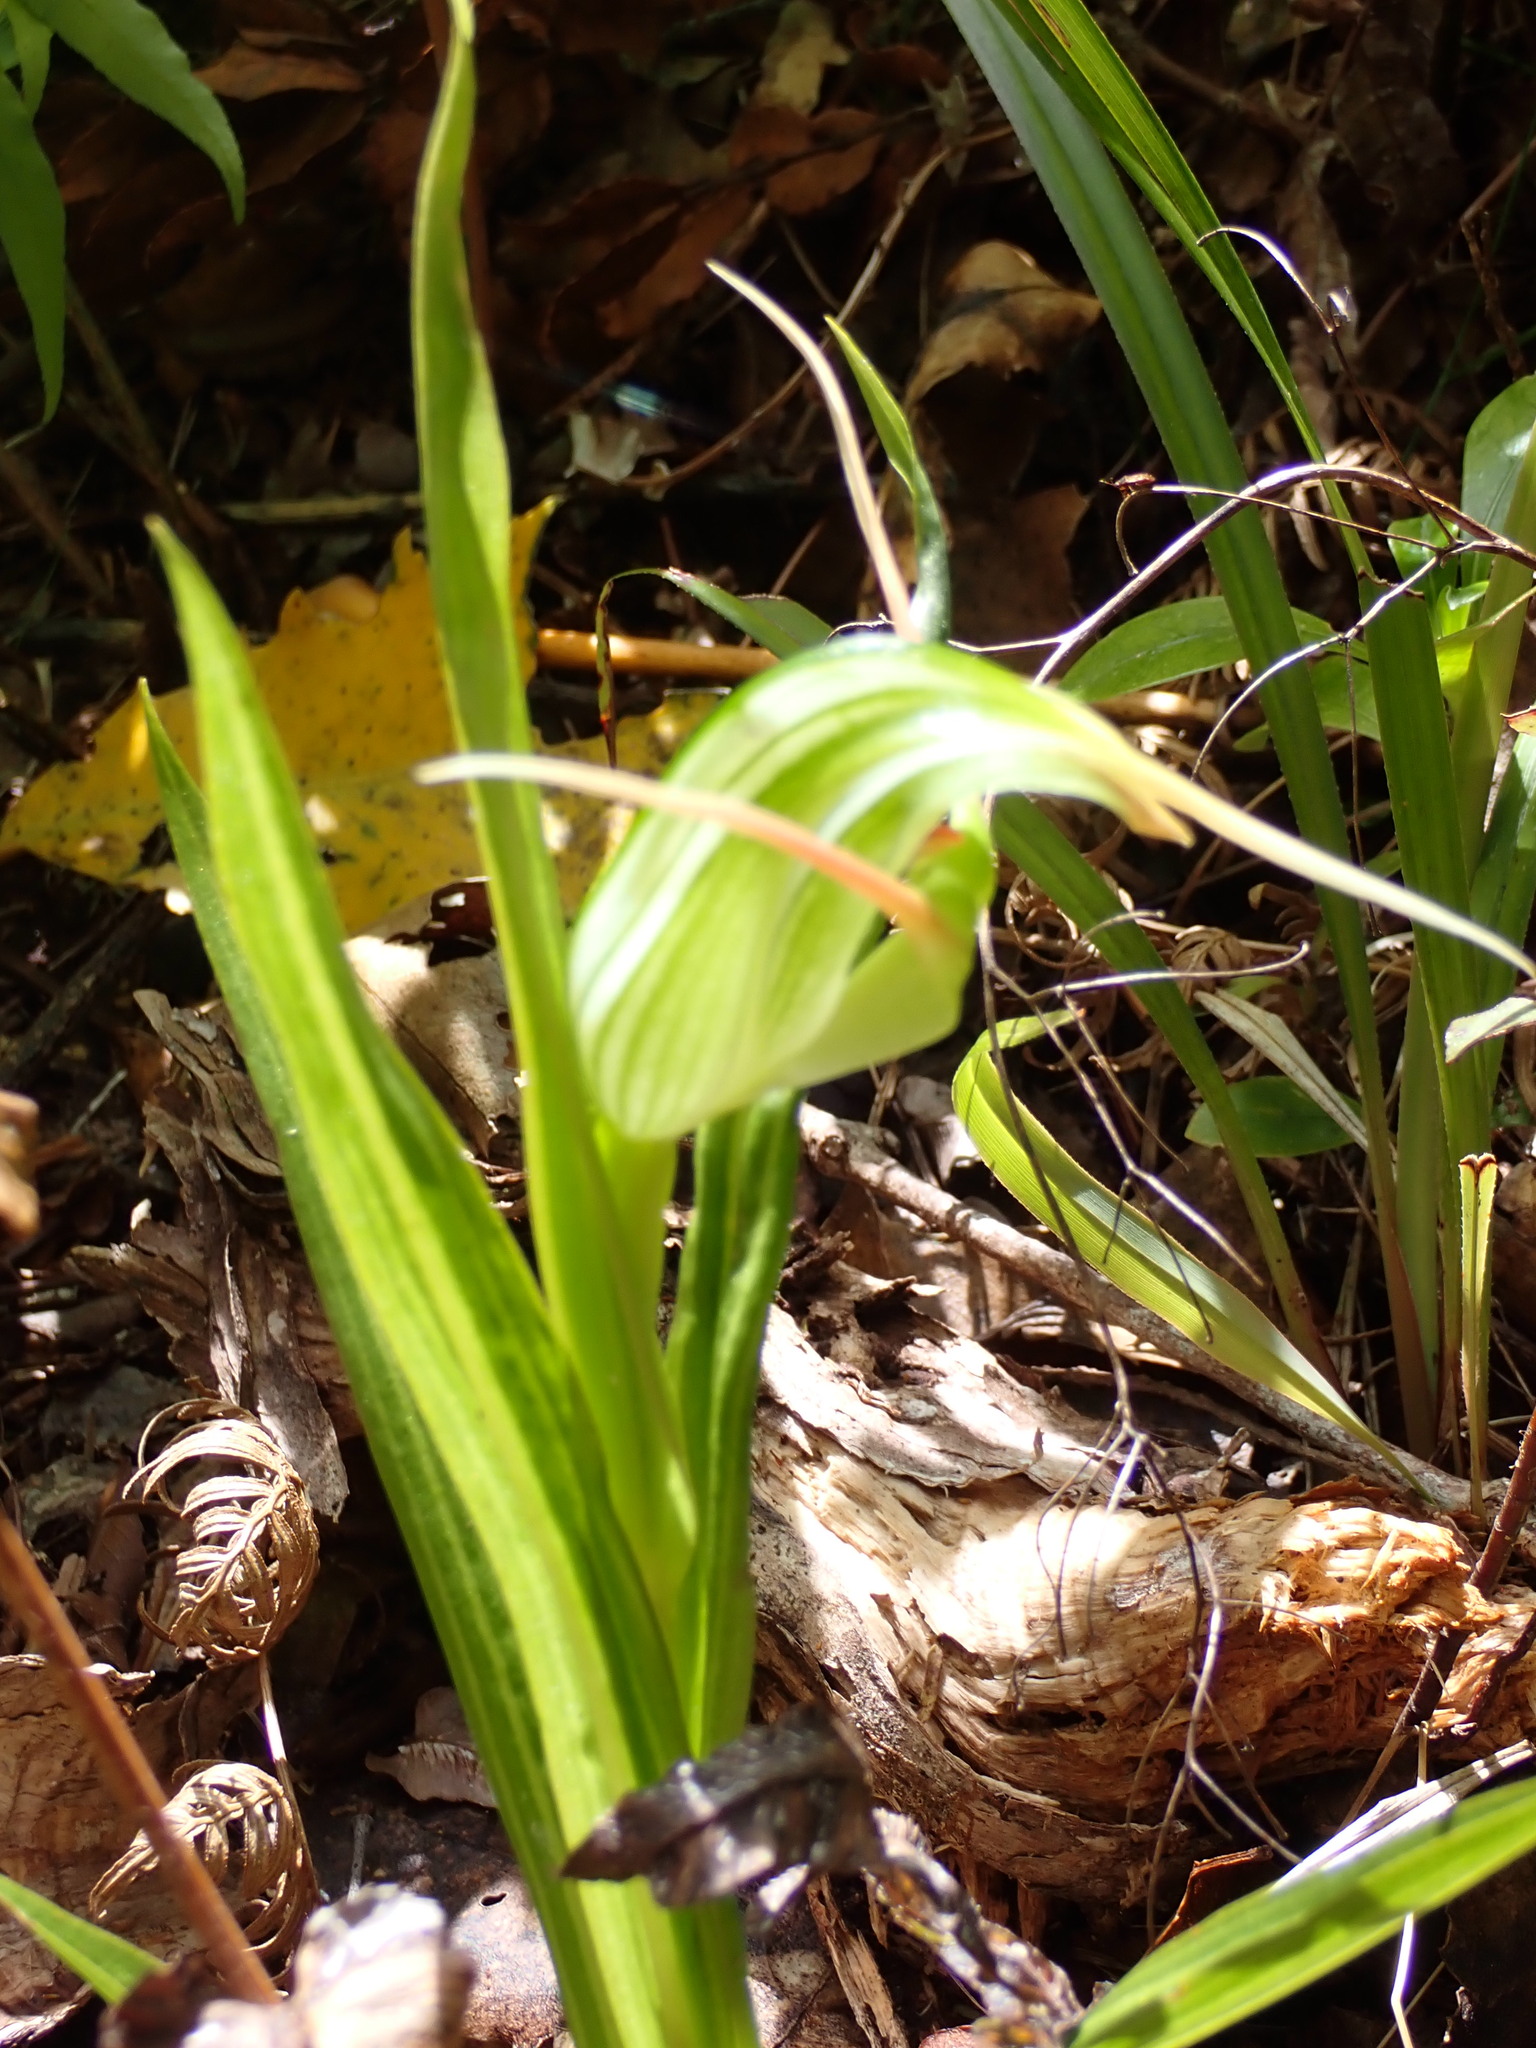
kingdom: Plantae
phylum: Tracheophyta
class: Liliopsida
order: Asparagales
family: Orchidaceae
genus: Pterostylis
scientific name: Pterostylis banksii
